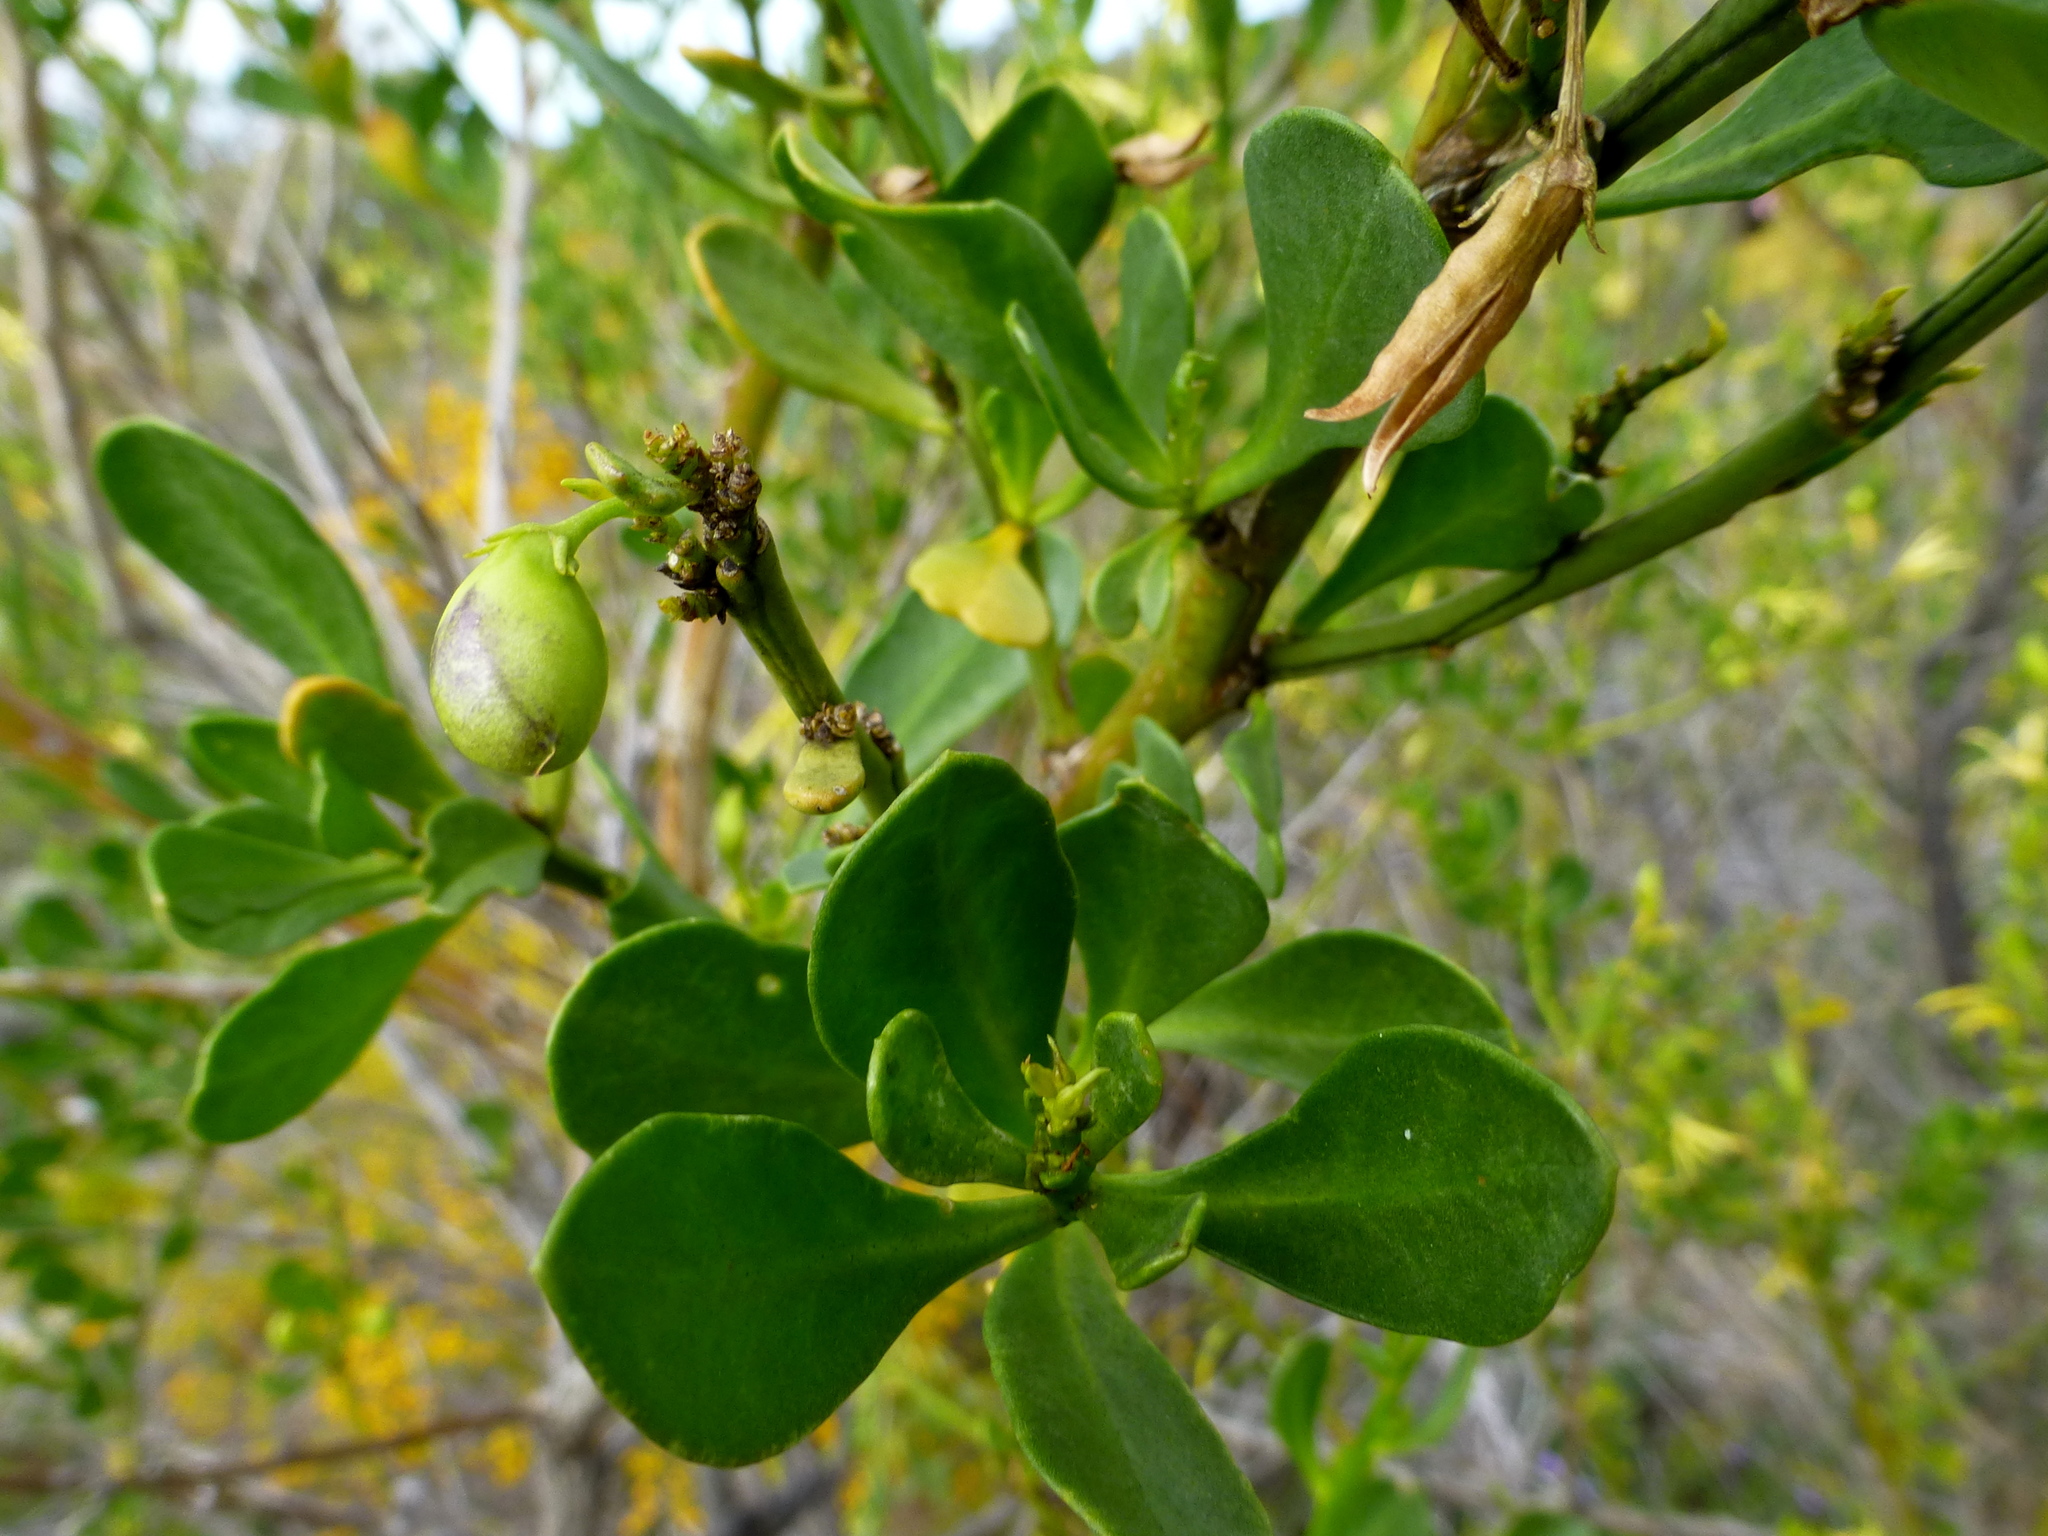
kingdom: Plantae
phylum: Tracheophyta
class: Magnoliopsida
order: Solanales
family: Solanaceae
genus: Anthocercis
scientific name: Anthocercis littorea
